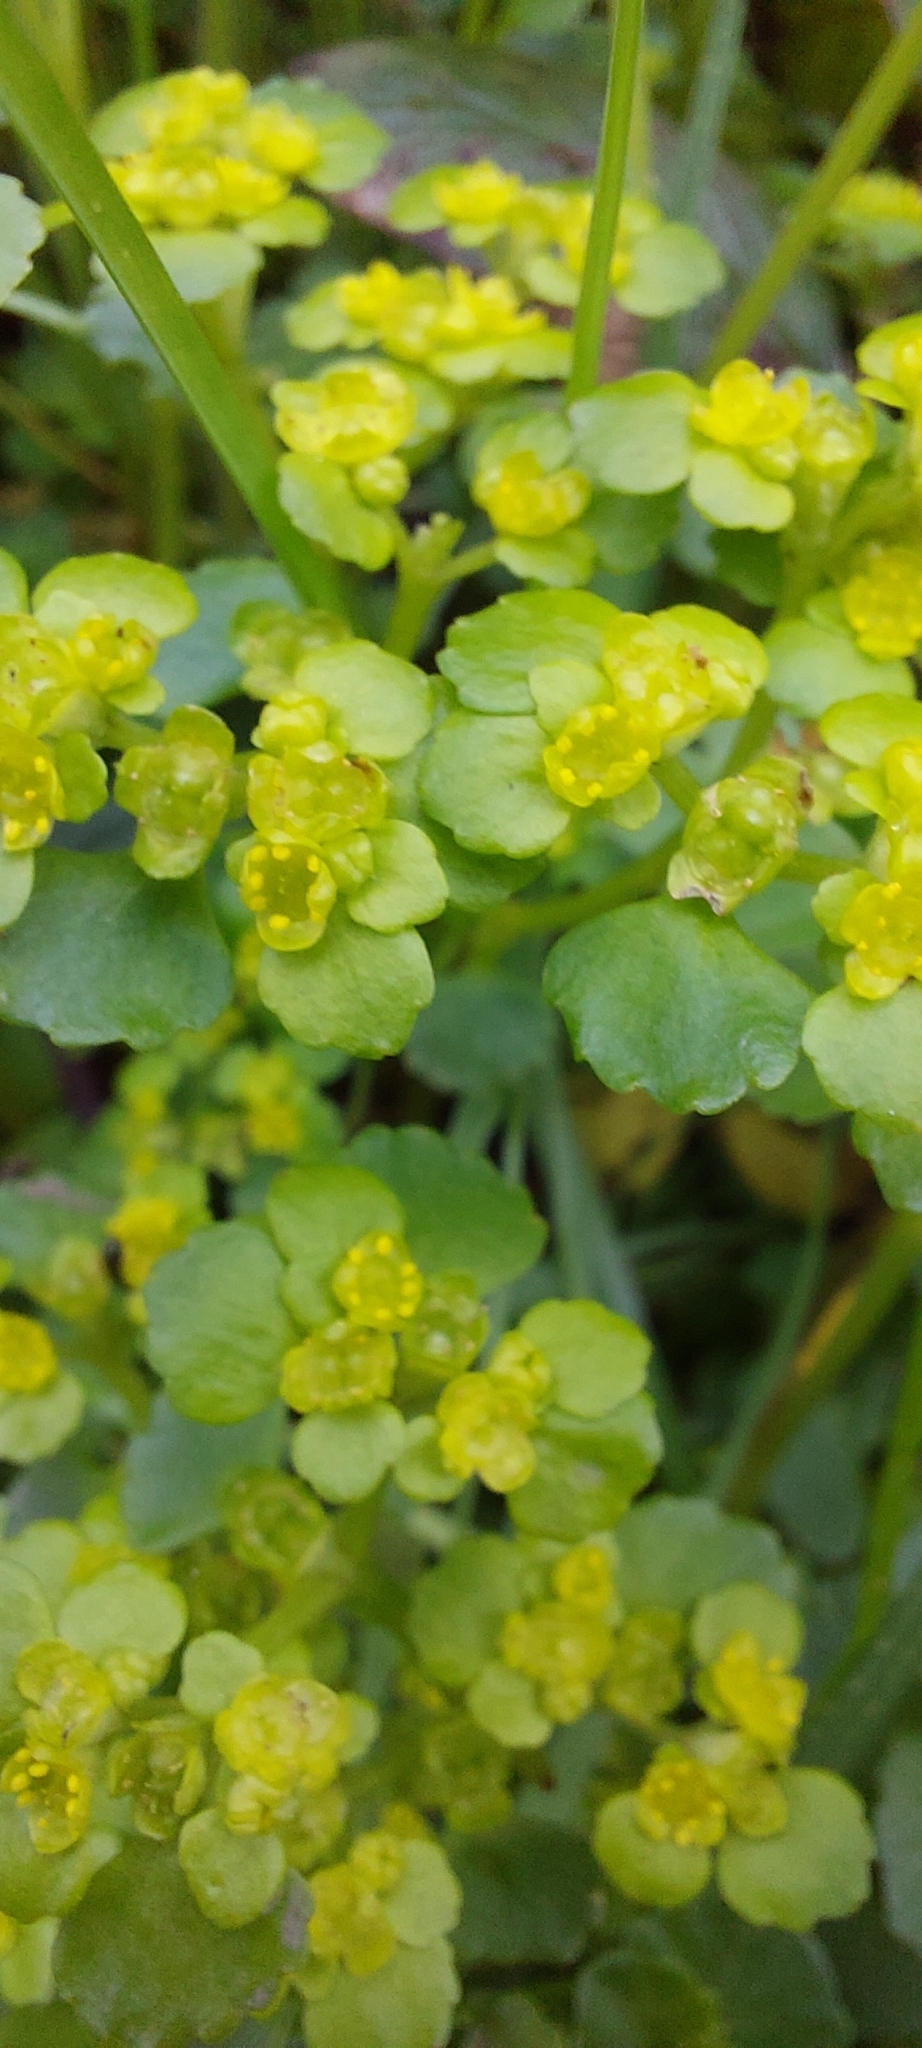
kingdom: Plantae
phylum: Tracheophyta
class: Magnoliopsida
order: Saxifragales
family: Saxifragaceae
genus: Chrysosplenium
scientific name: Chrysosplenium oppositifolium
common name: Opposite-leaved golden-saxifrage
